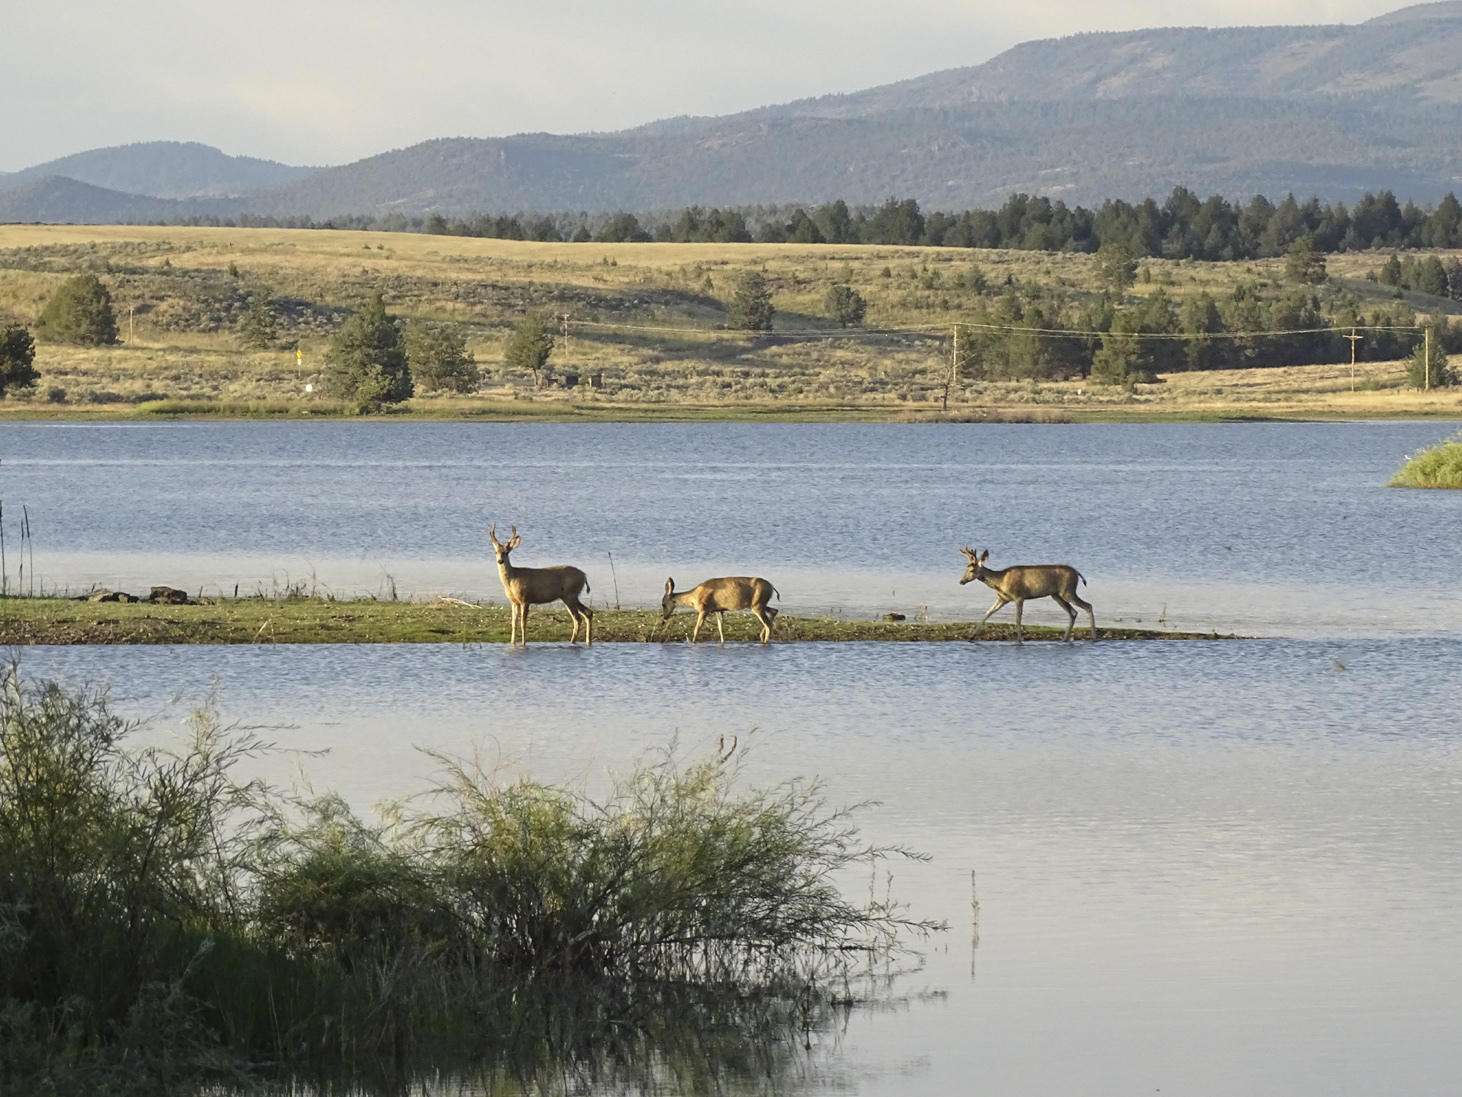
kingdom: Animalia
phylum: Chordata
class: Mammalia
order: Artiodactyla
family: Cervidae
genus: Odocoileus
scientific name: Odocoileus hemionus
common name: Mule deer
